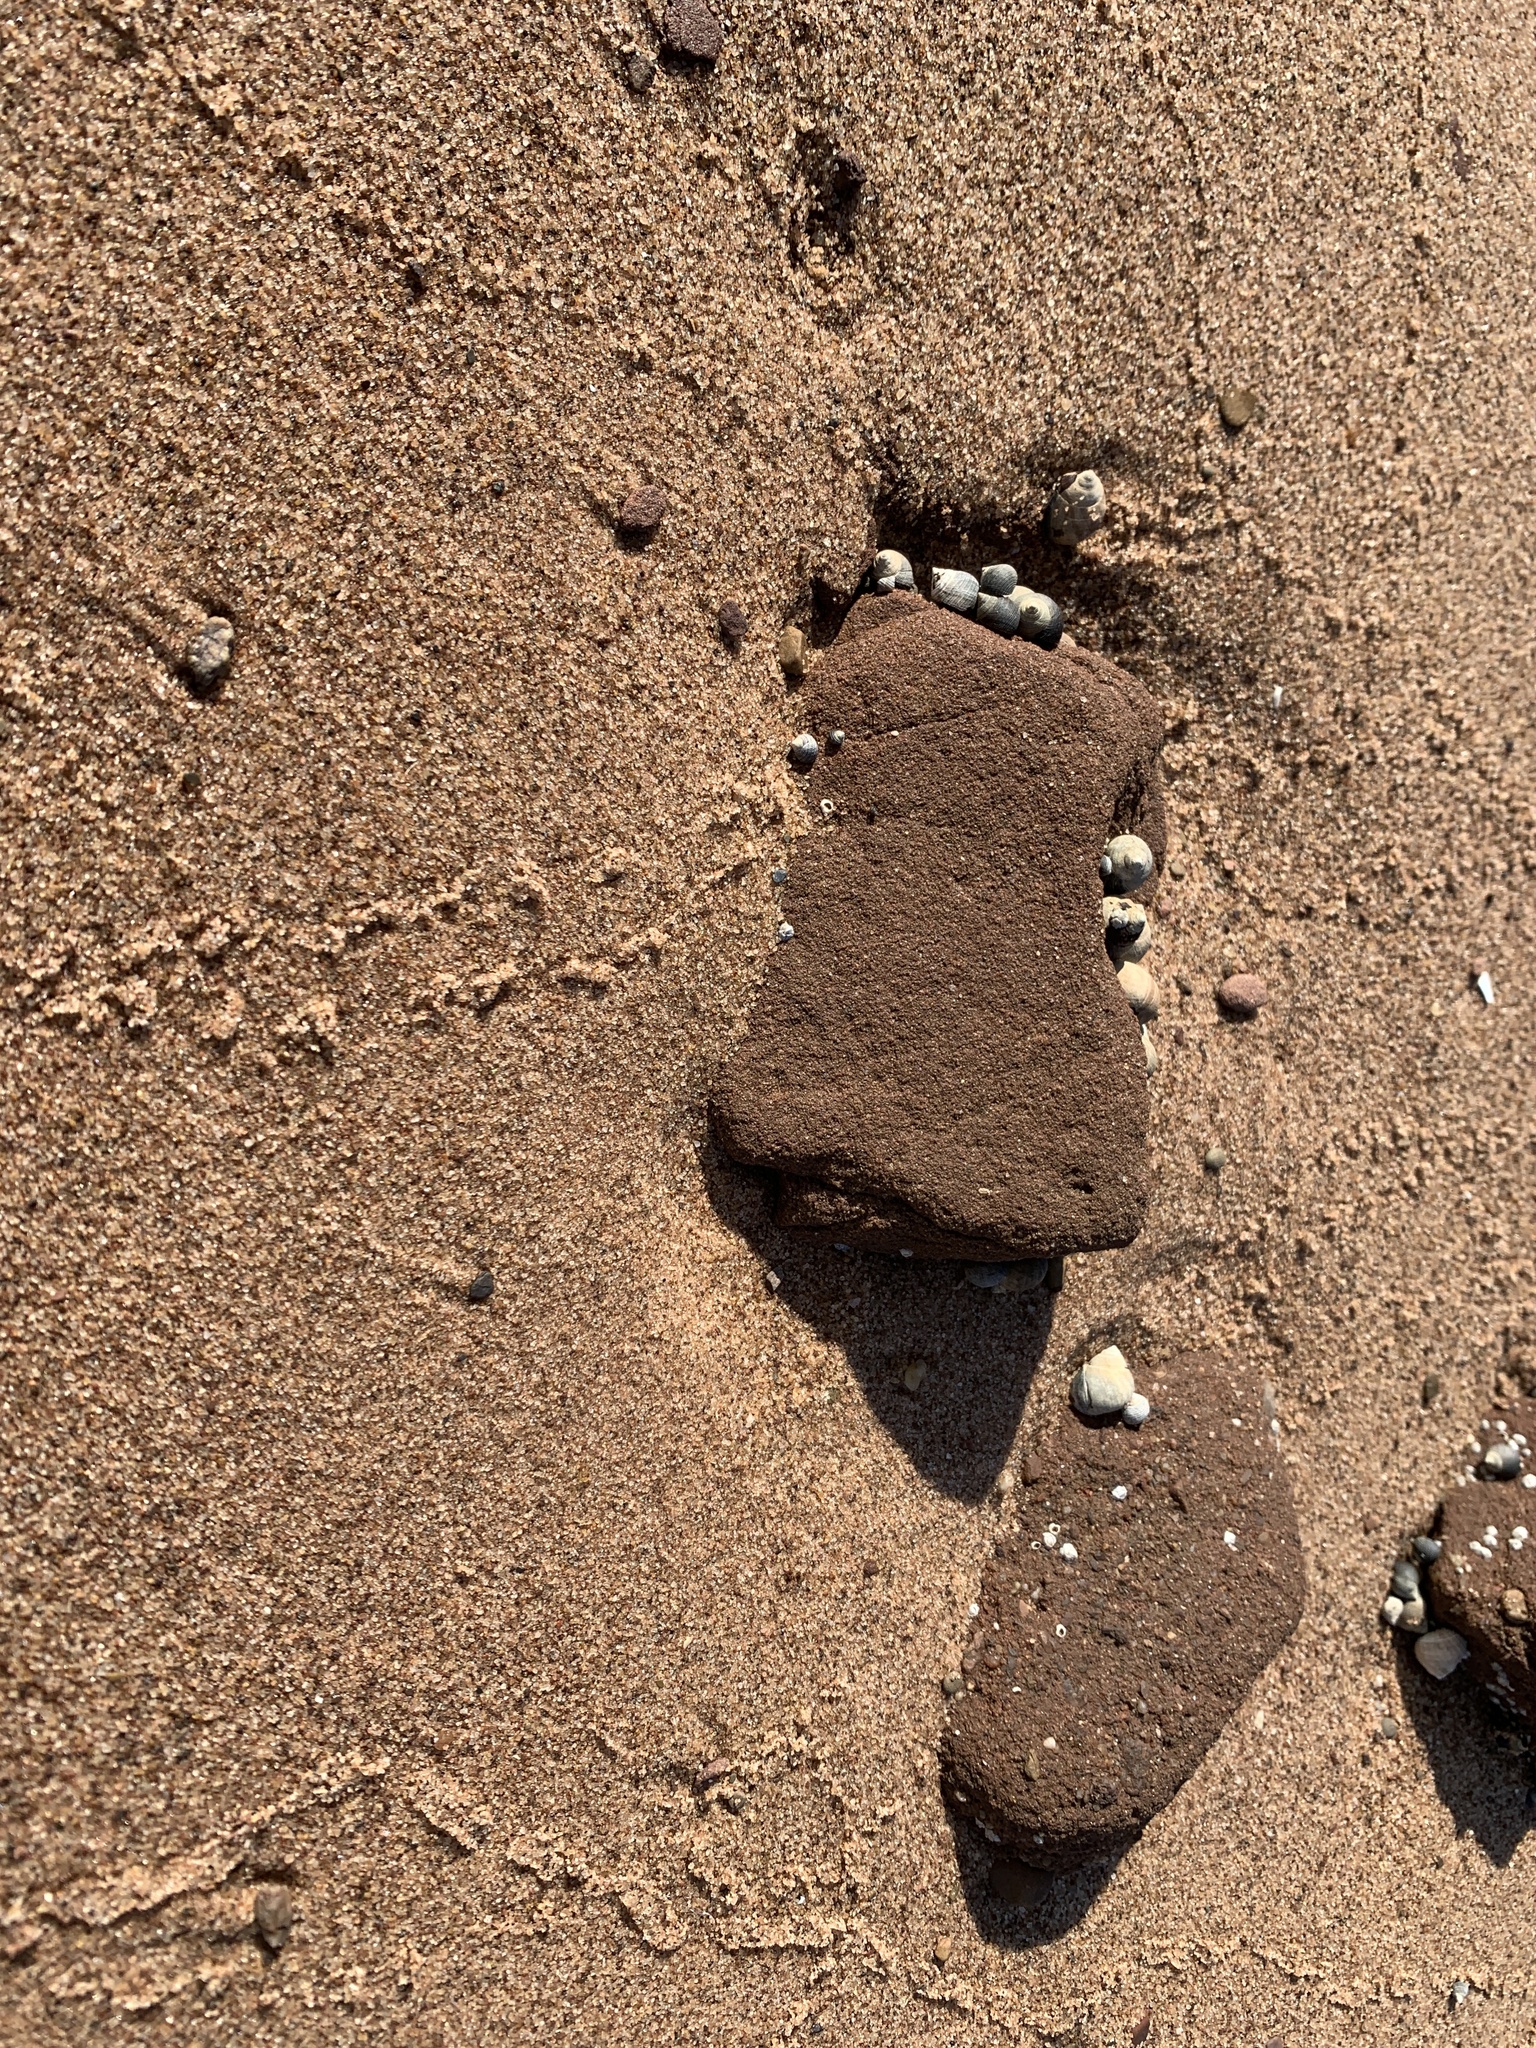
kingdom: Animalia
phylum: Mollusca
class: Gastropoda
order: Littorinimorpha
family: Littorinidae
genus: Littorina
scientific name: Littorina littorea
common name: Common periwinkle
